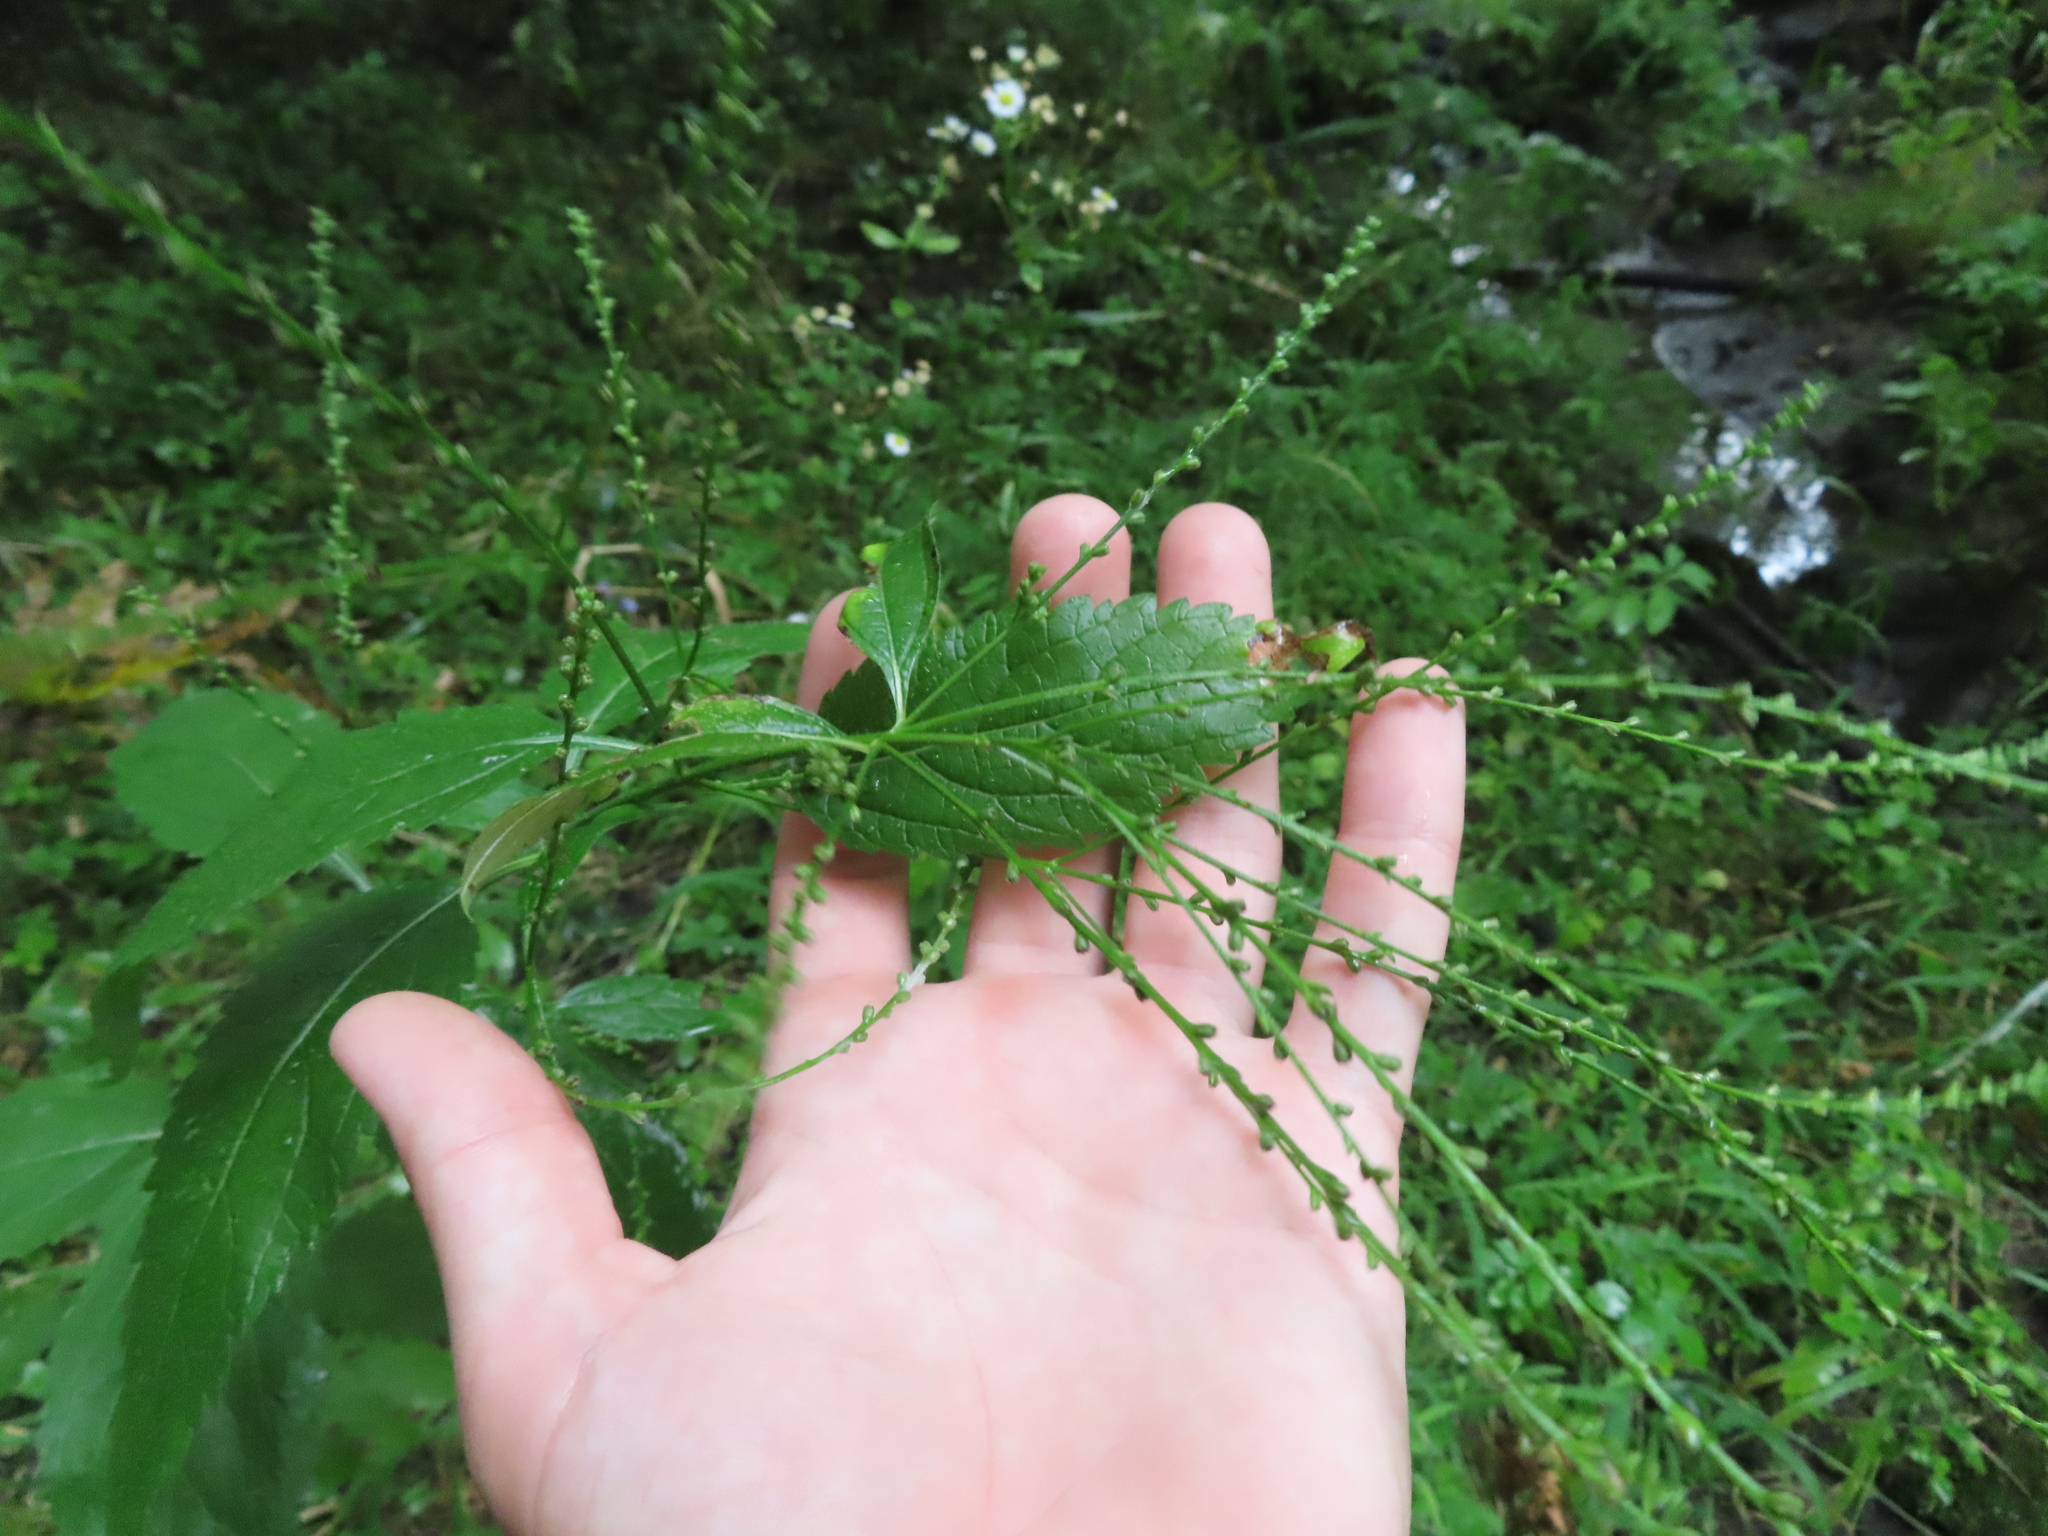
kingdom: Plantae
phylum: Tracheophyta
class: Magnoliopsida
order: Lamiales
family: Verbenaceae
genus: Verbena
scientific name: Verbena urticifolia
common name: Nettle-leaved vervain
